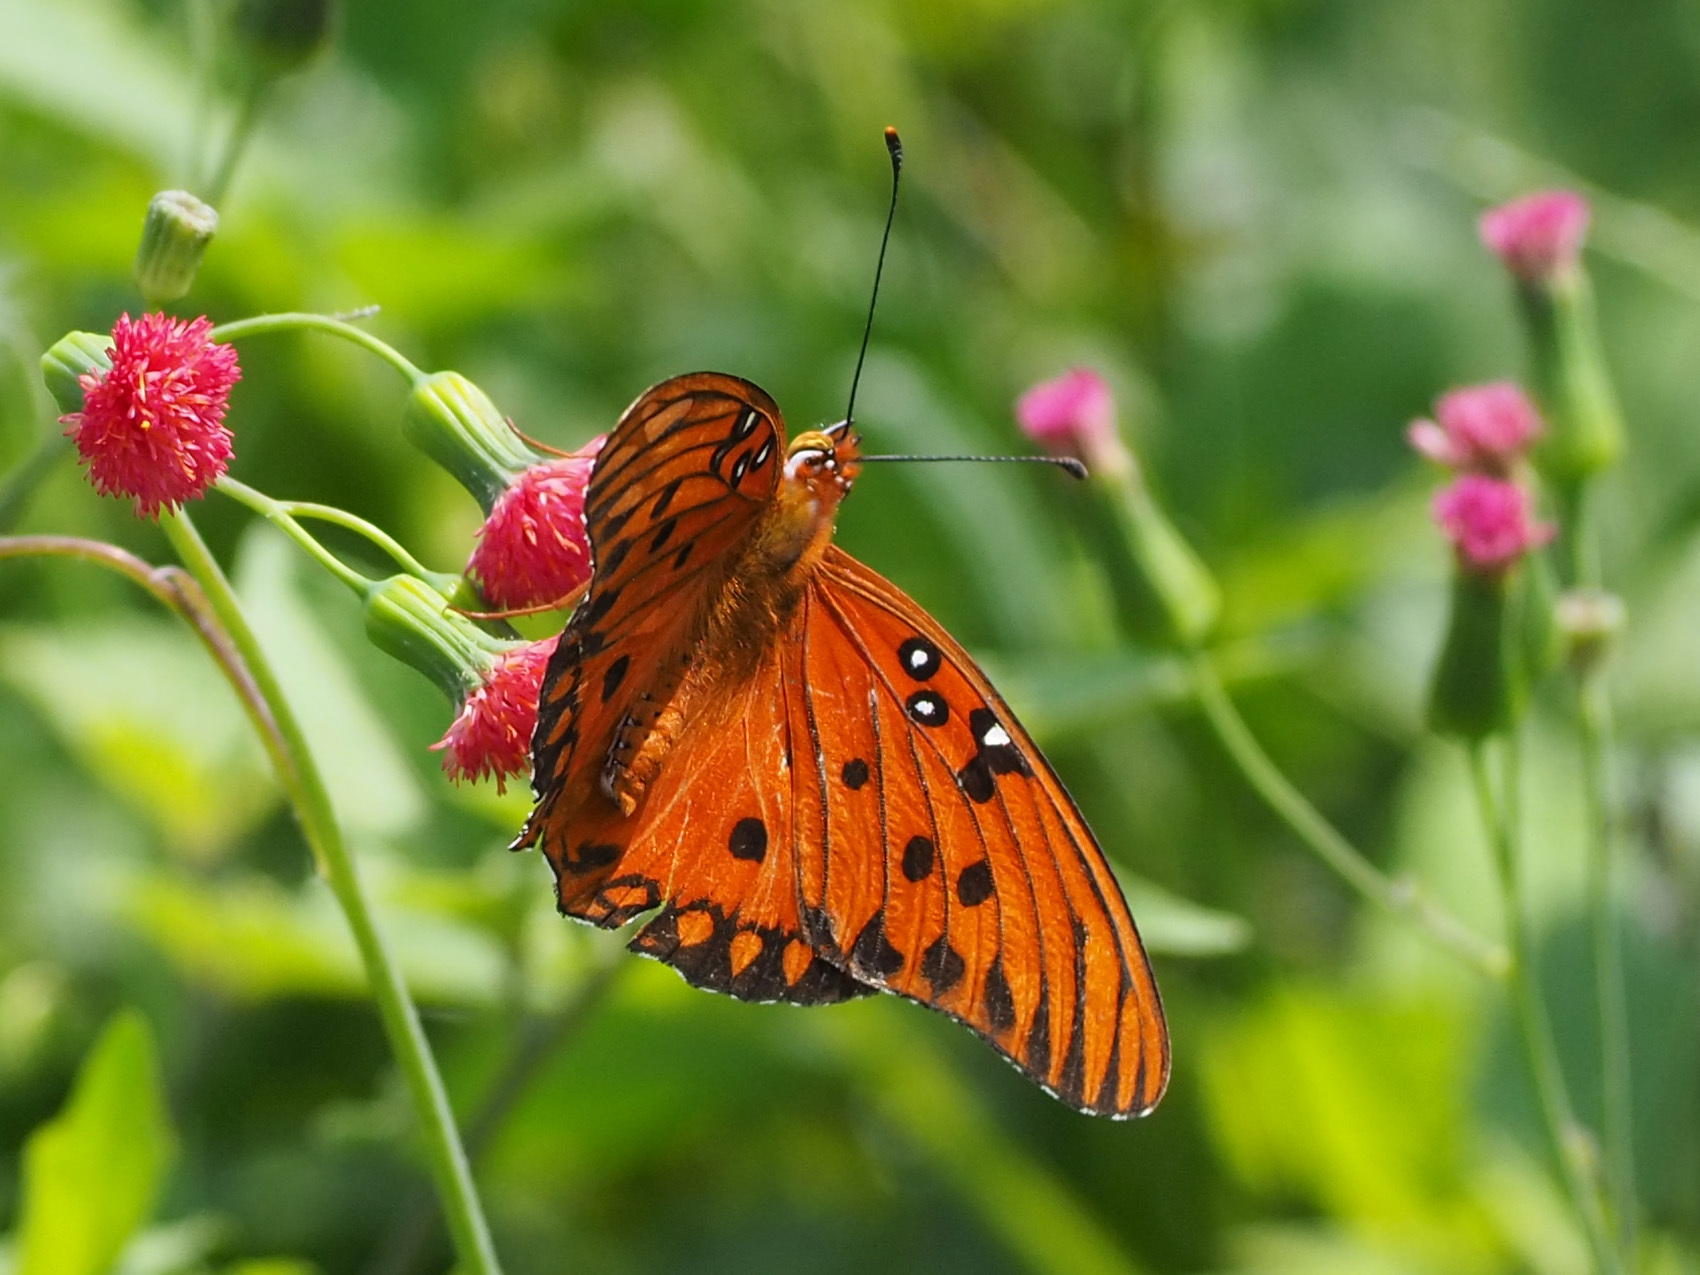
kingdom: Animalia
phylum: Arthropoda
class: Insecta
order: Lepidoptera
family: Nymphalidae
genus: Dione
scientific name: Dione vanillae
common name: Gulf fritillary
